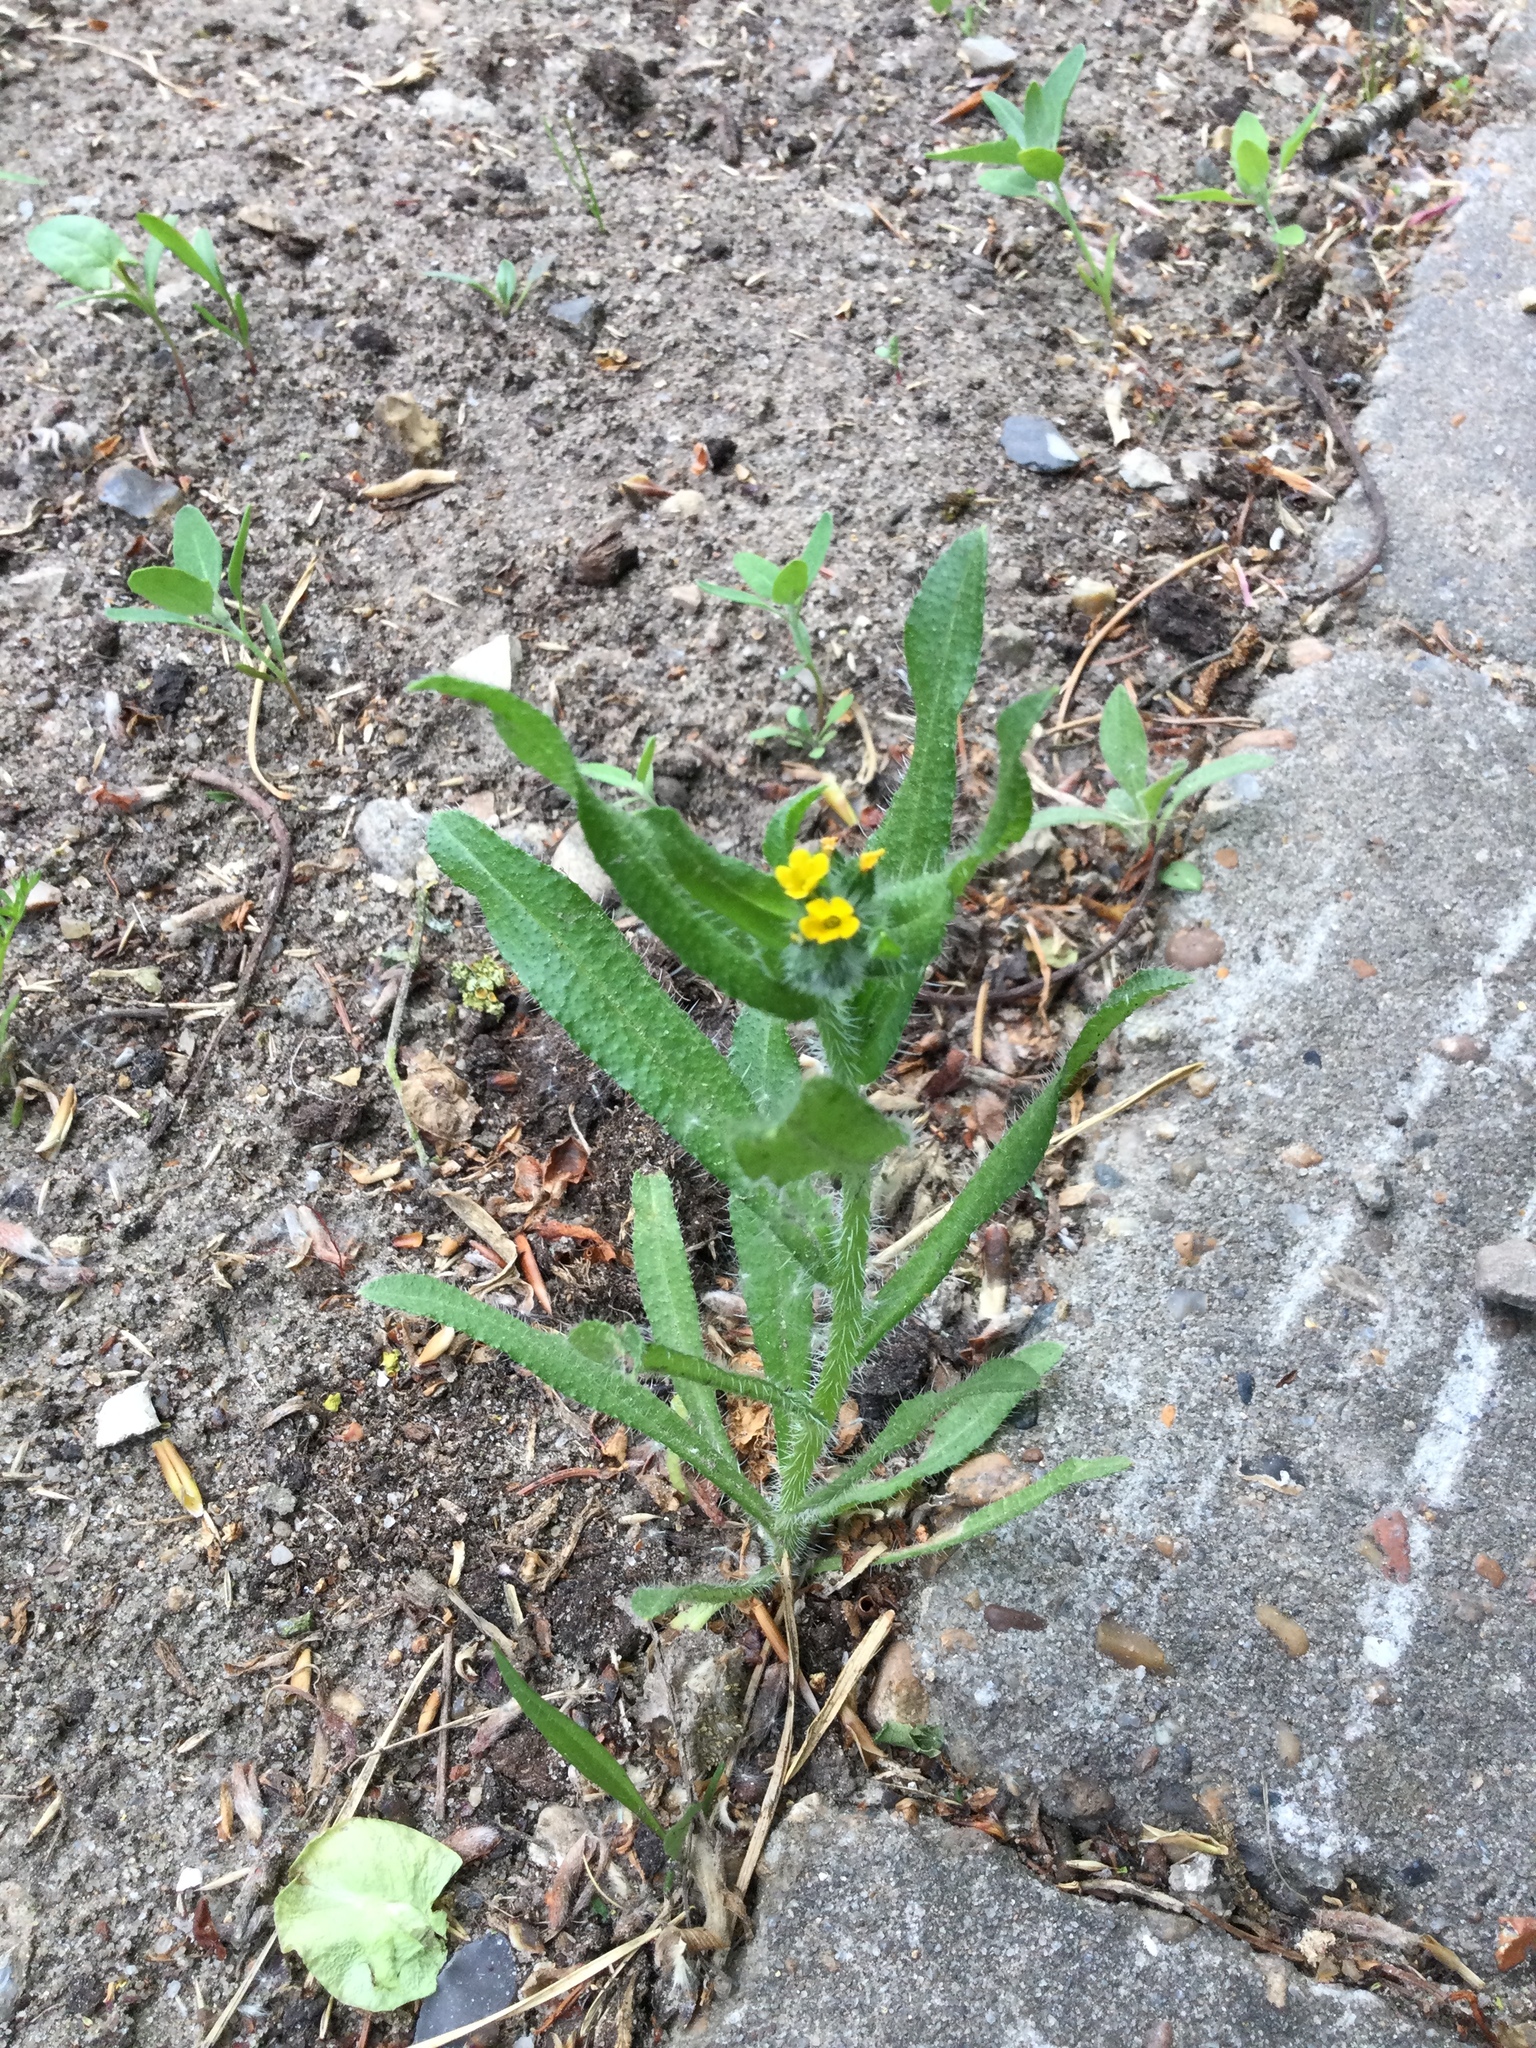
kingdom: Plantae
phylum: Tracheophyta
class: Magnoliopsida
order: Boraginales
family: Boraginaceae
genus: Amsinckia
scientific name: Amsinckia menziesii
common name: Menzies' fiddleneck
